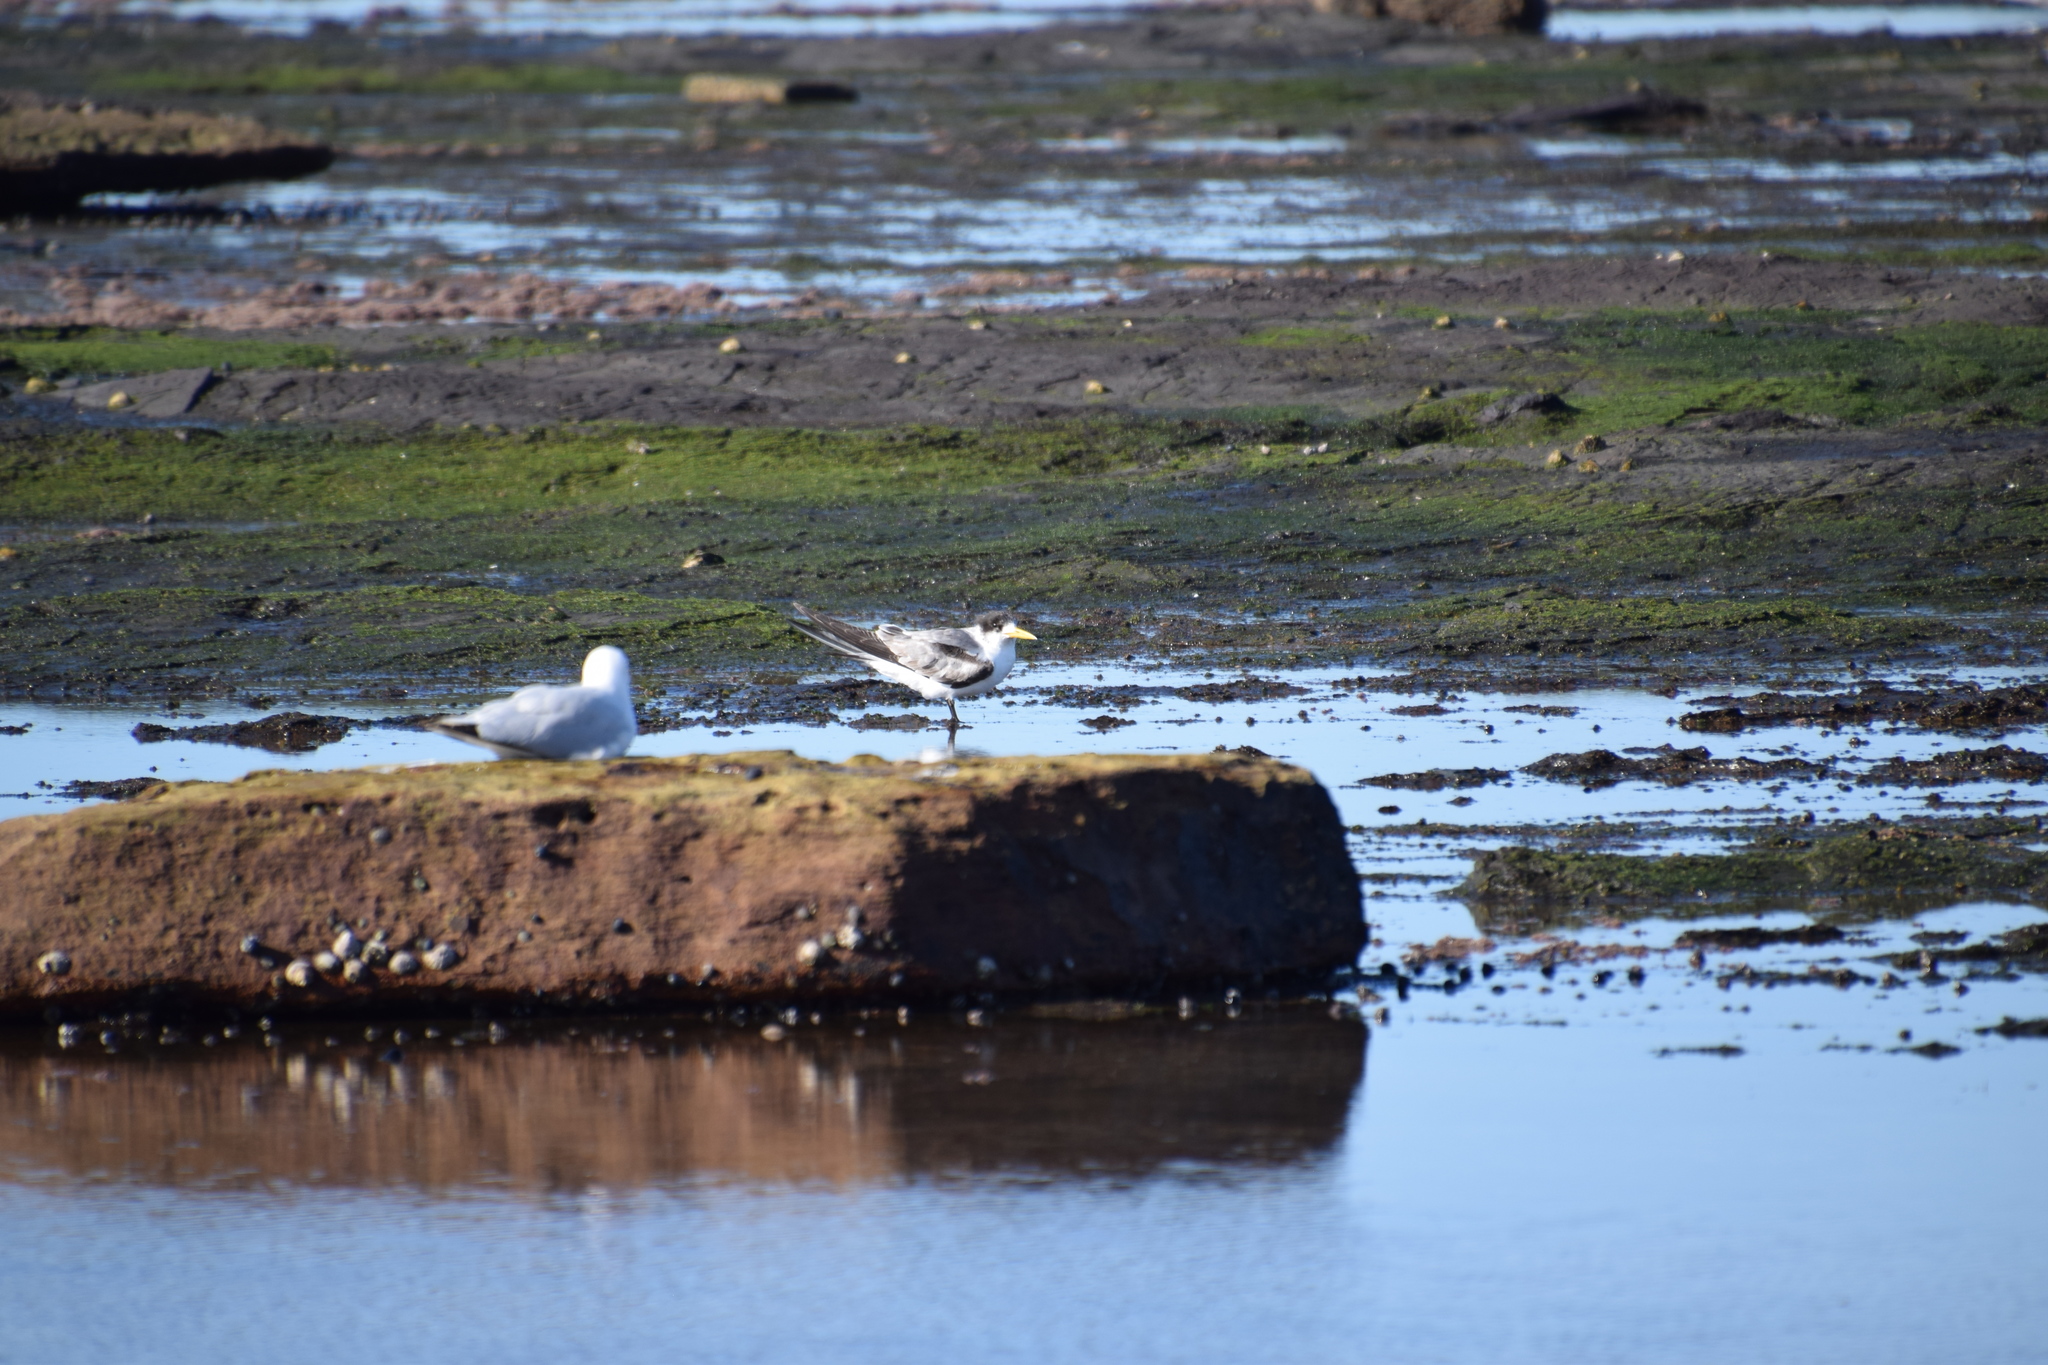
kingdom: Animalia
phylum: Chordata
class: Aves
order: Charadriiformes
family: Laridae
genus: Thalasseus
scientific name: Thalasseus bergii
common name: Greater crested tern
